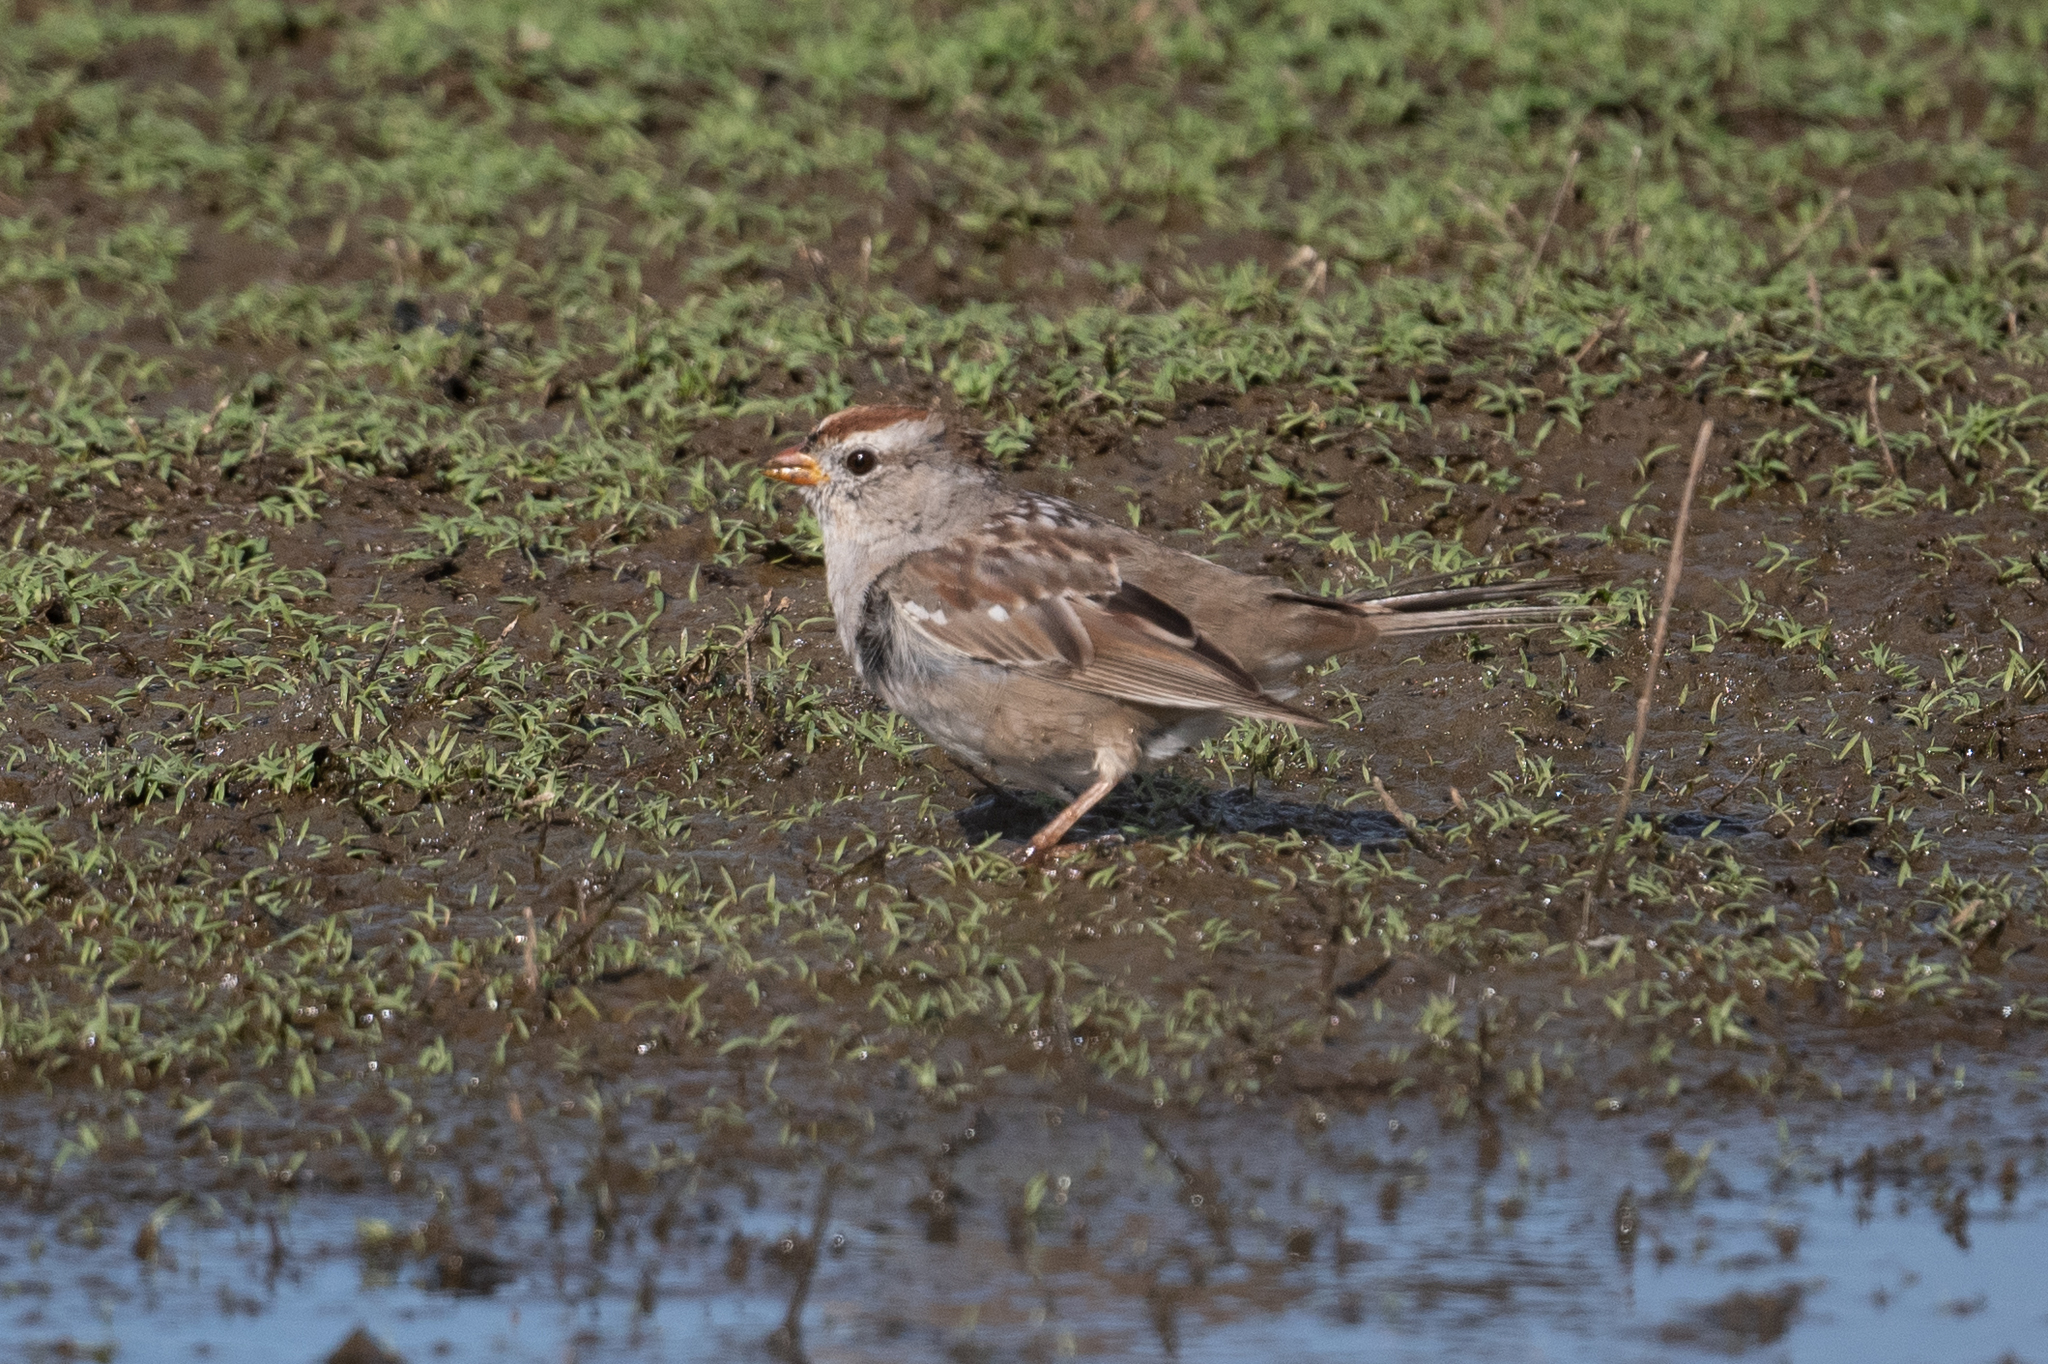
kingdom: Animalia
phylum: Chordata
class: Aves
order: Passeriformes
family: Passerellidae
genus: Zonotrichia
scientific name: Zonotrichia leucophrys
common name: White-crowned sparrow
